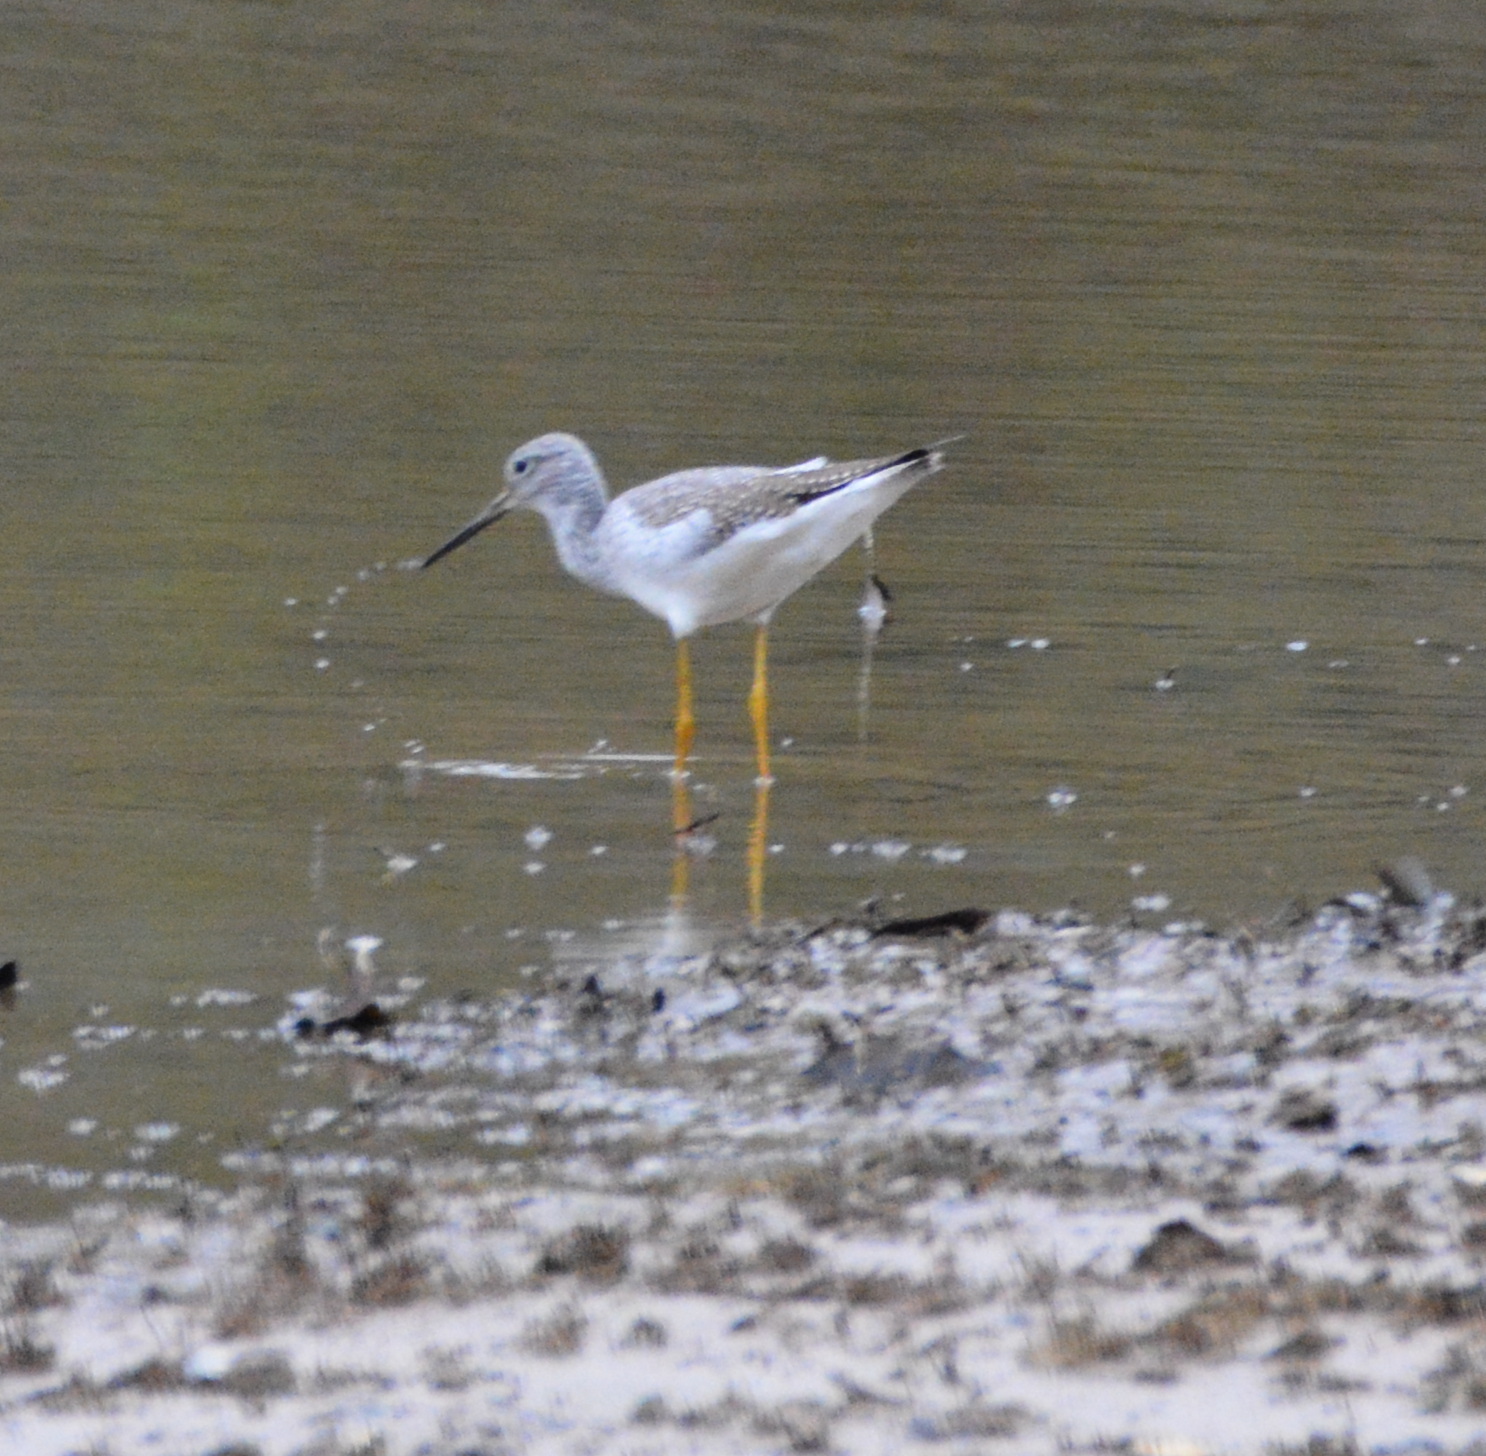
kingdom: Animalia
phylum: Chordata
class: Aves
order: Charadriiformes
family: Scolopacidae
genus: Tringa
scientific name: Tringa melanoleuca
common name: Greater yellowlegs
